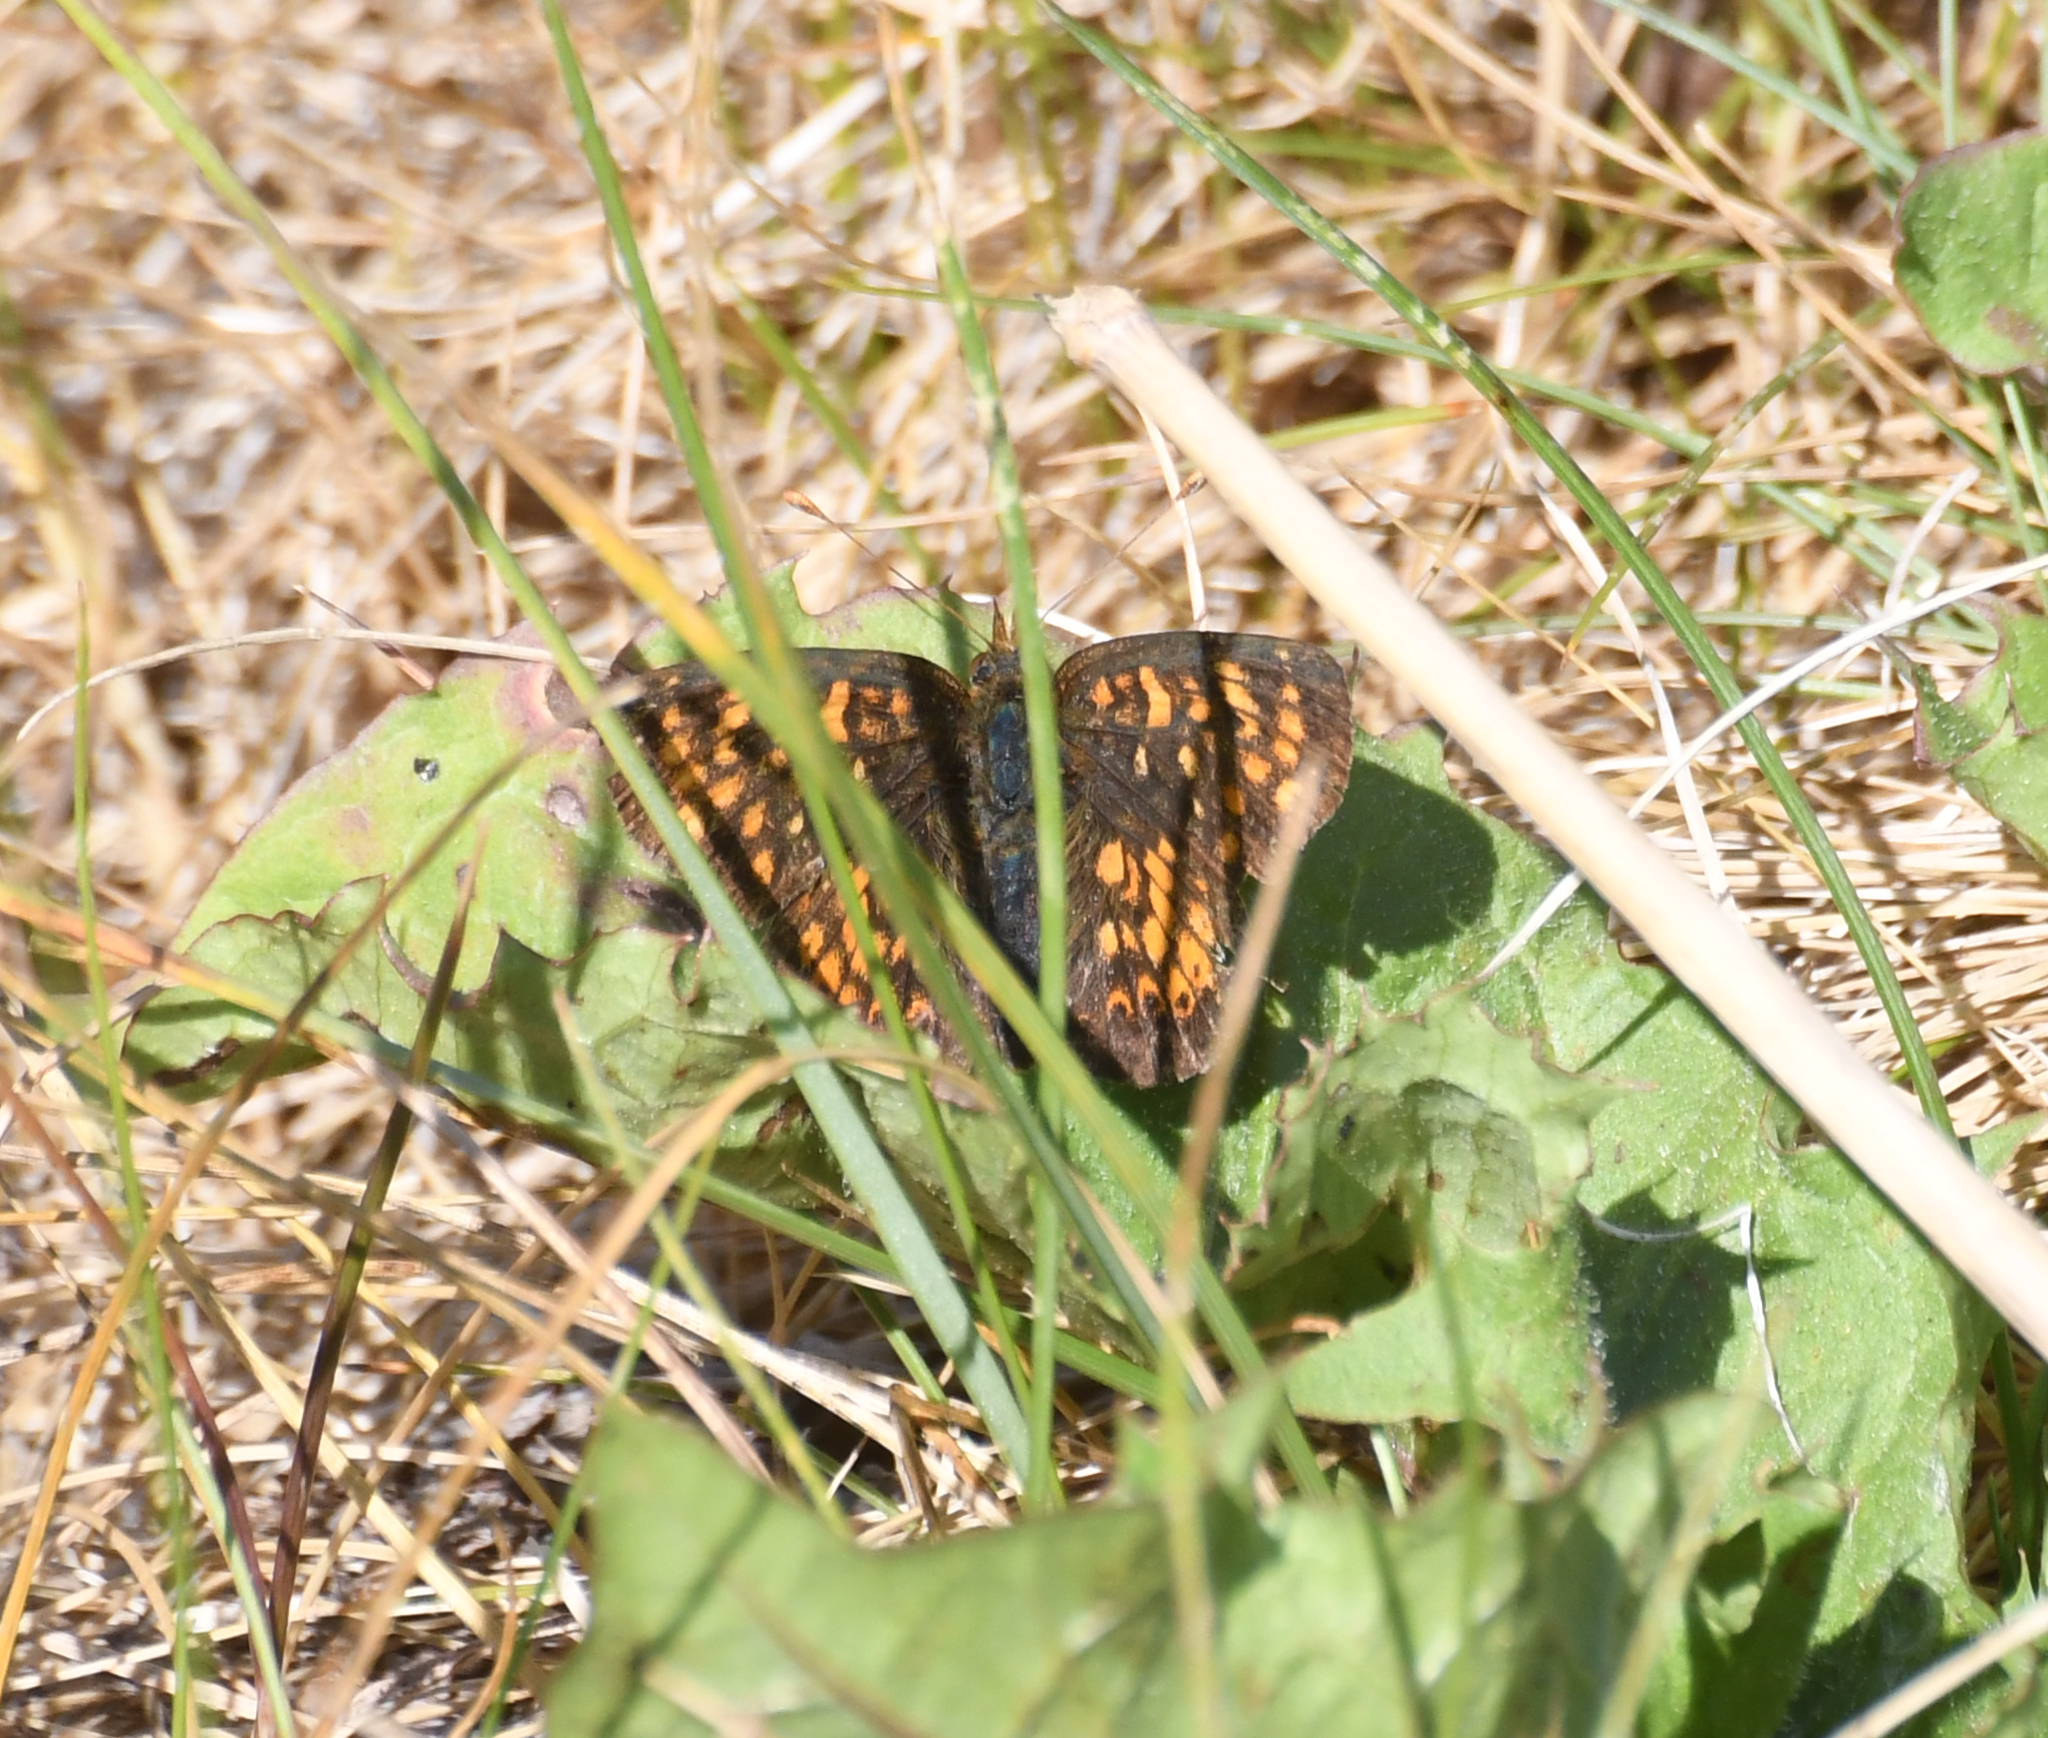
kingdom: Animalia
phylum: Arthropoda
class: Insecta
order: Lepidoptera
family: Nymphalidae
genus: Phyciodes
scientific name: Phyciodes tharos
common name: Pearl crescent
